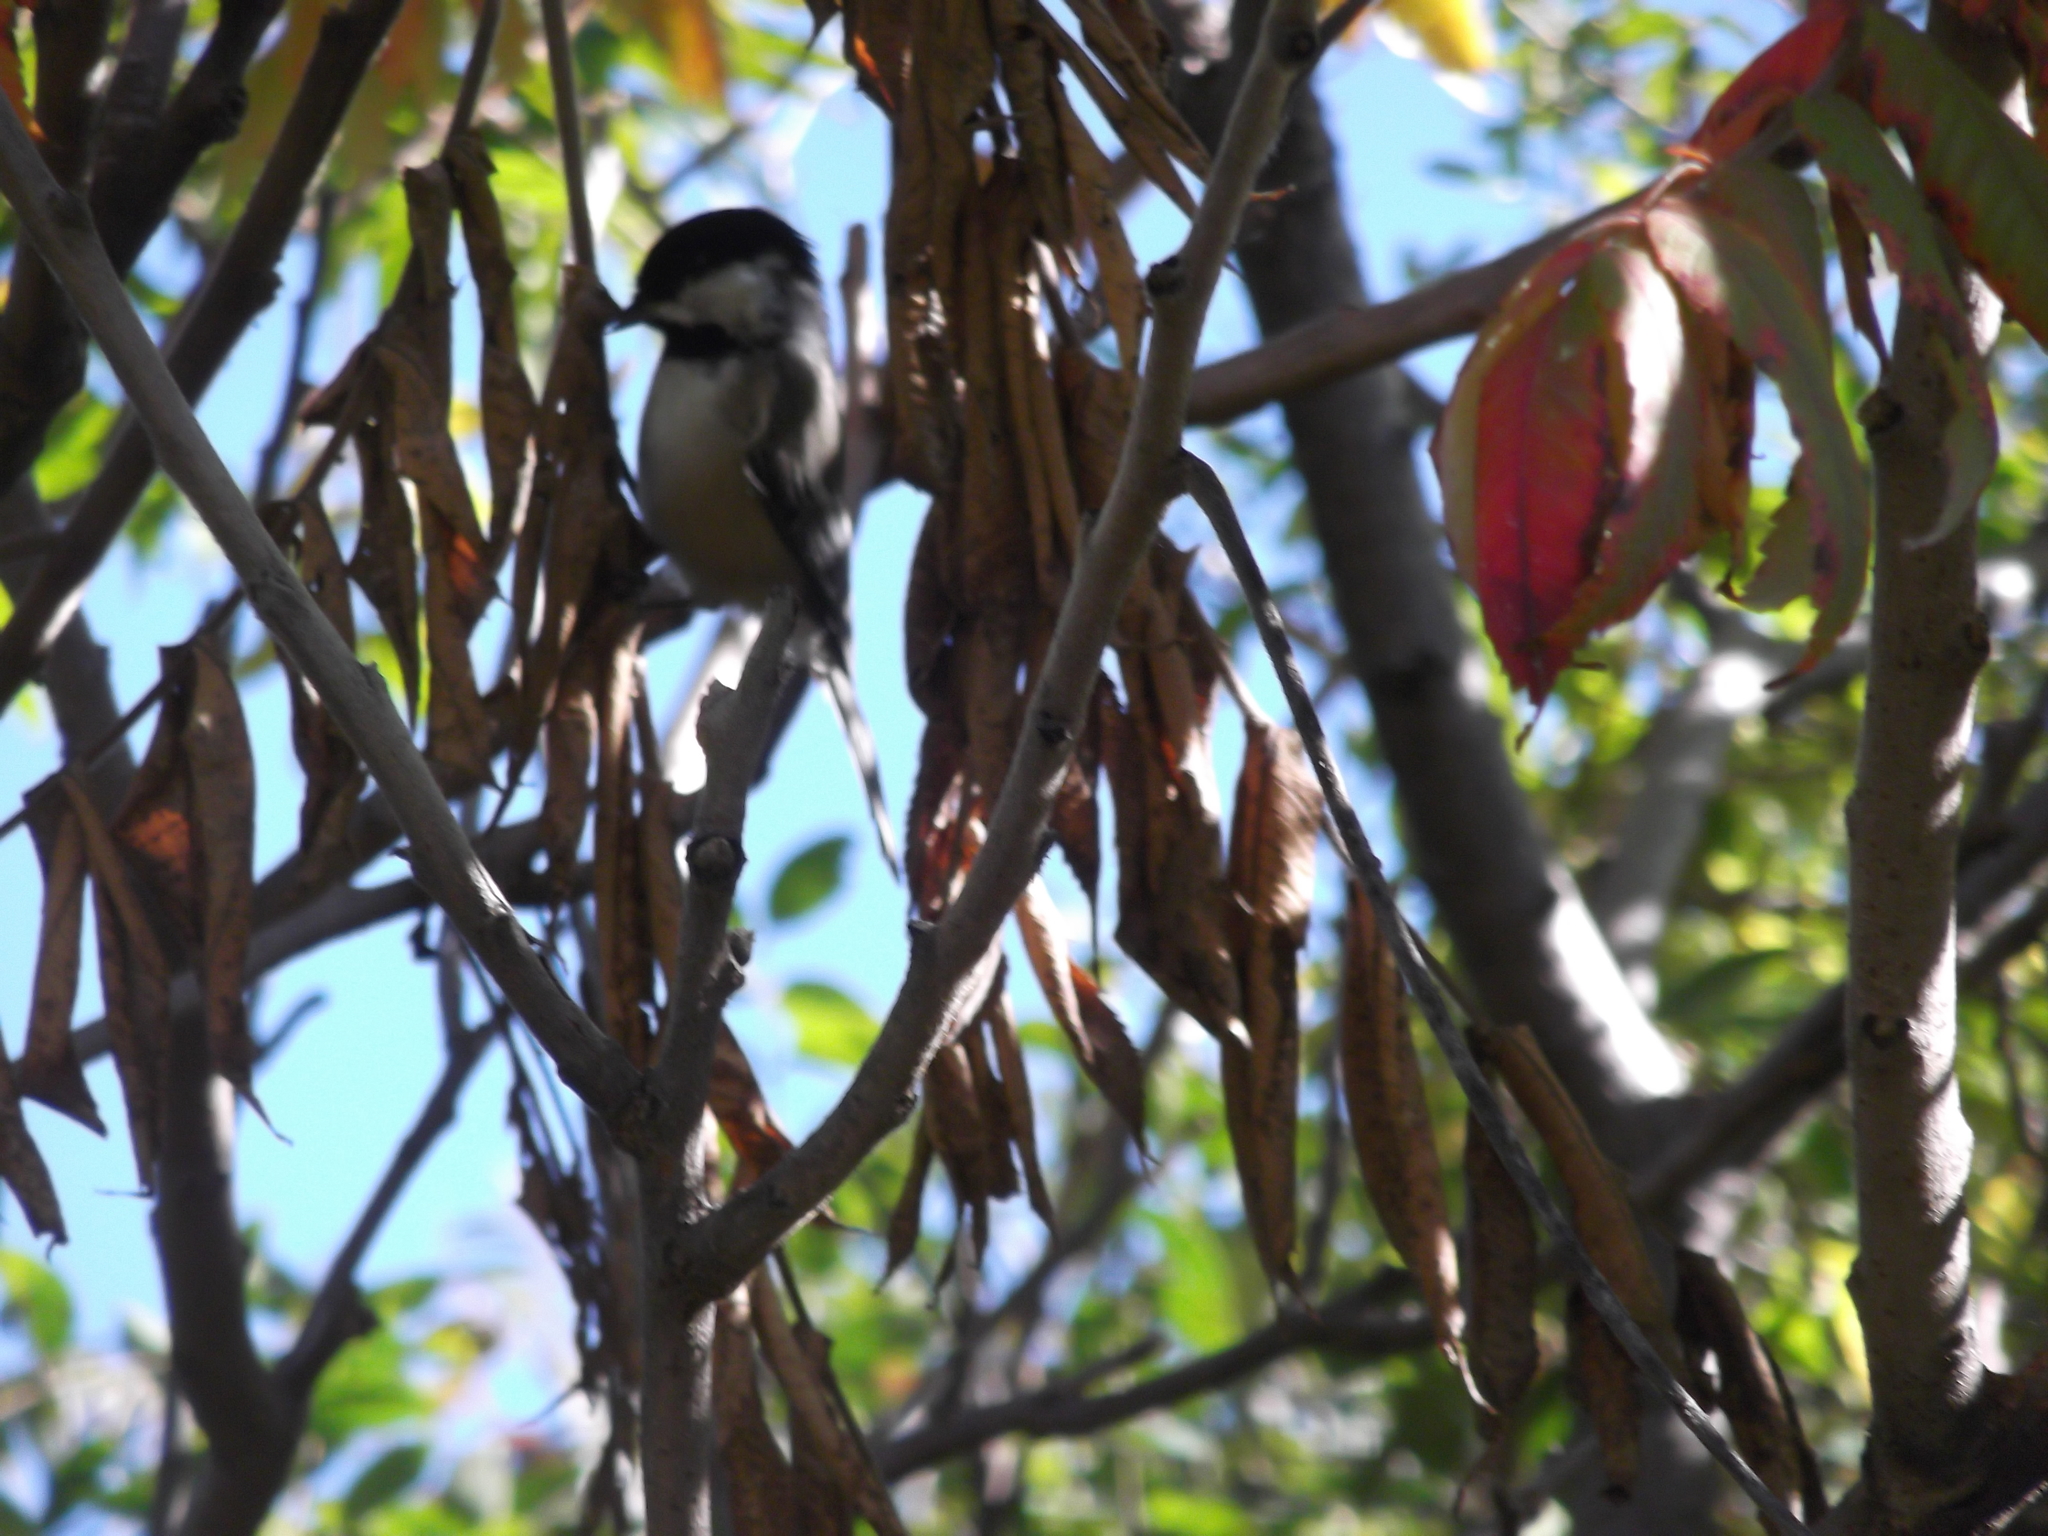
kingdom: Animalia
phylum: Chordata
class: Aves
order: Passeriformes
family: Paridae
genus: Poecile
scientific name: Poecile atricapillus
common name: Black-capped chickadee
